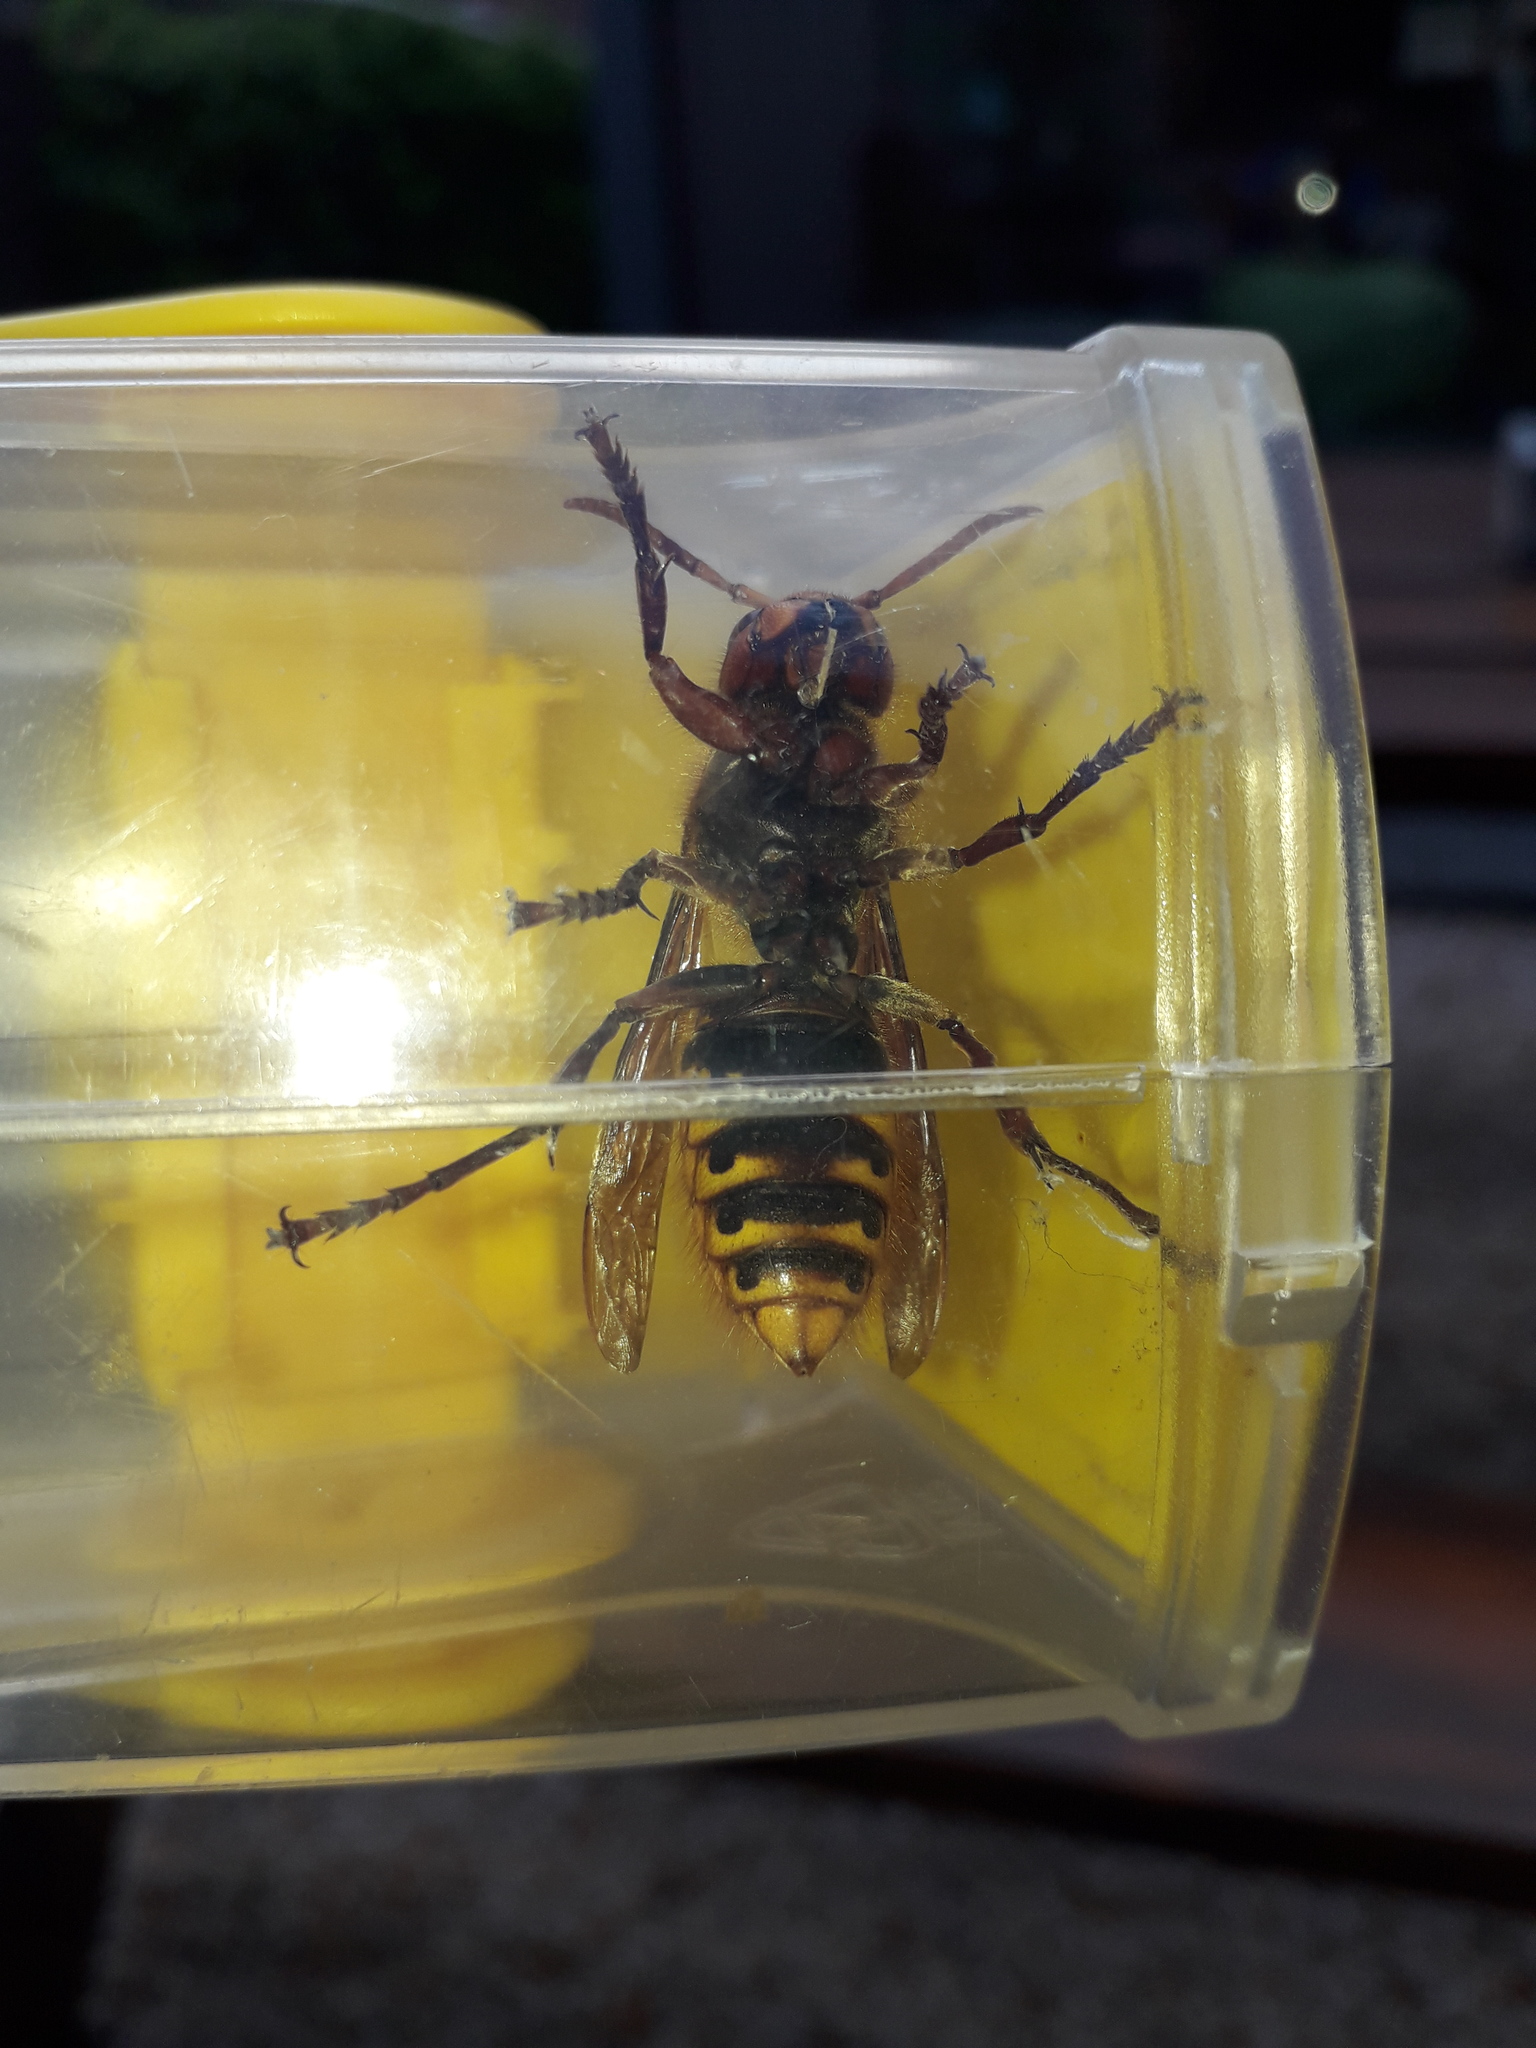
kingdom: Animalia
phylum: Arthropoda
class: Insecta
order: Hymenoptera
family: Vespidae
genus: Vespa
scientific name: Vespa crabro
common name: Hornet
